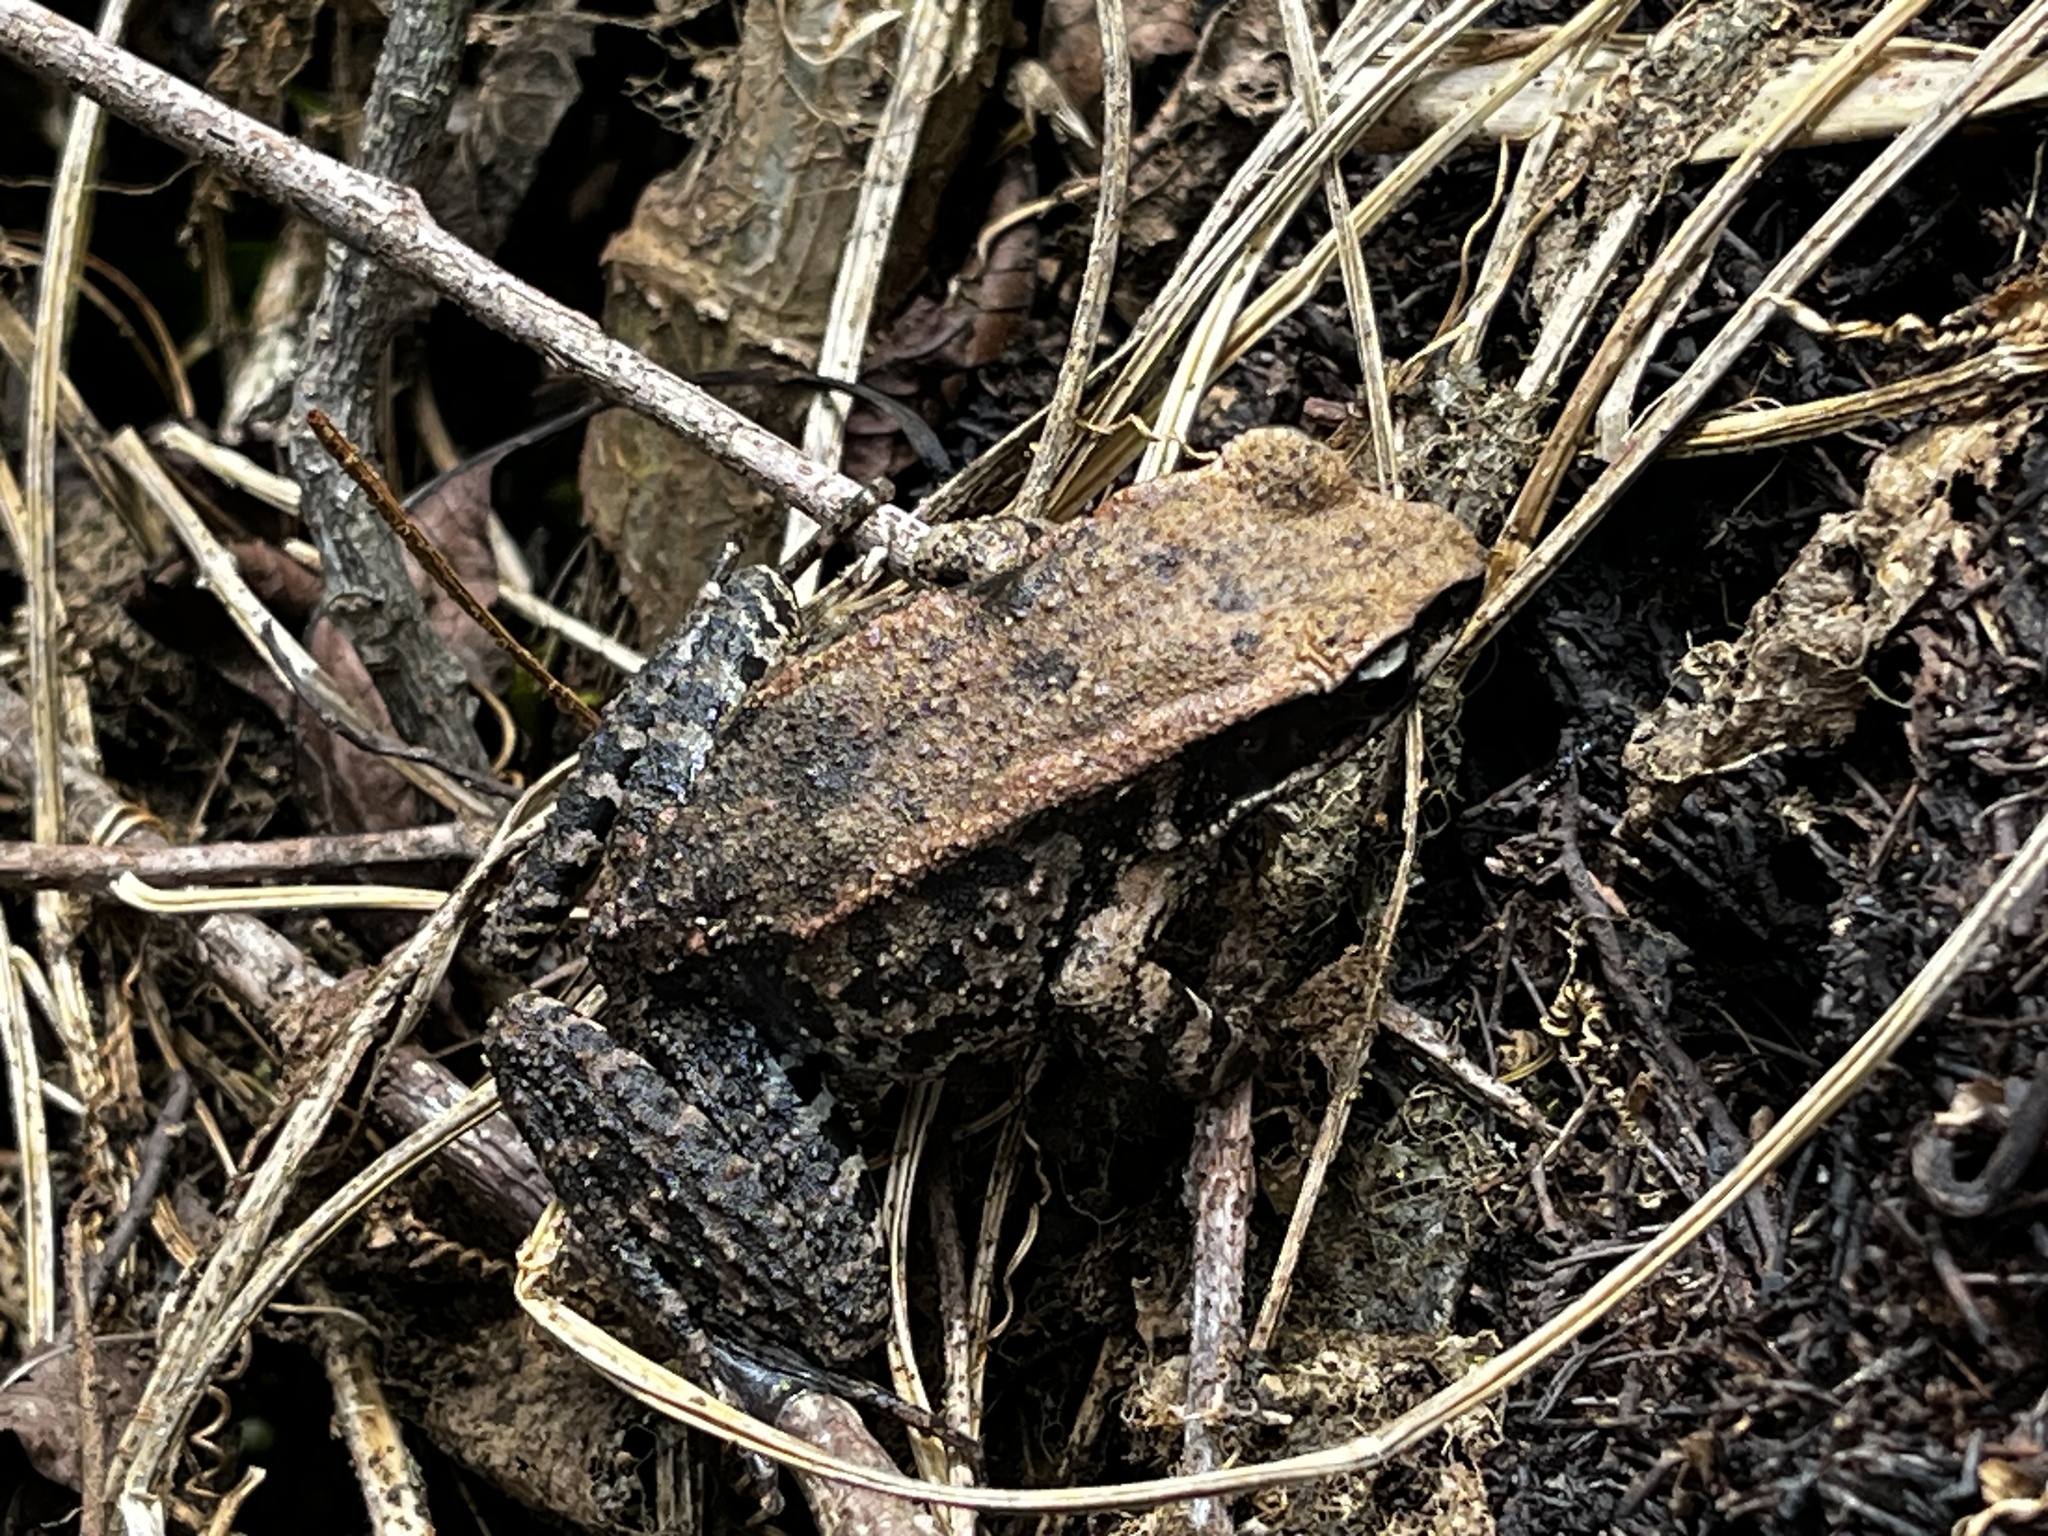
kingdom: Animalia
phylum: Chordata
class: Amphibia
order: Anura
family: Ranidae
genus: Hylarana
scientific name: Hylarana latouchii
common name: Broad-folded frog
